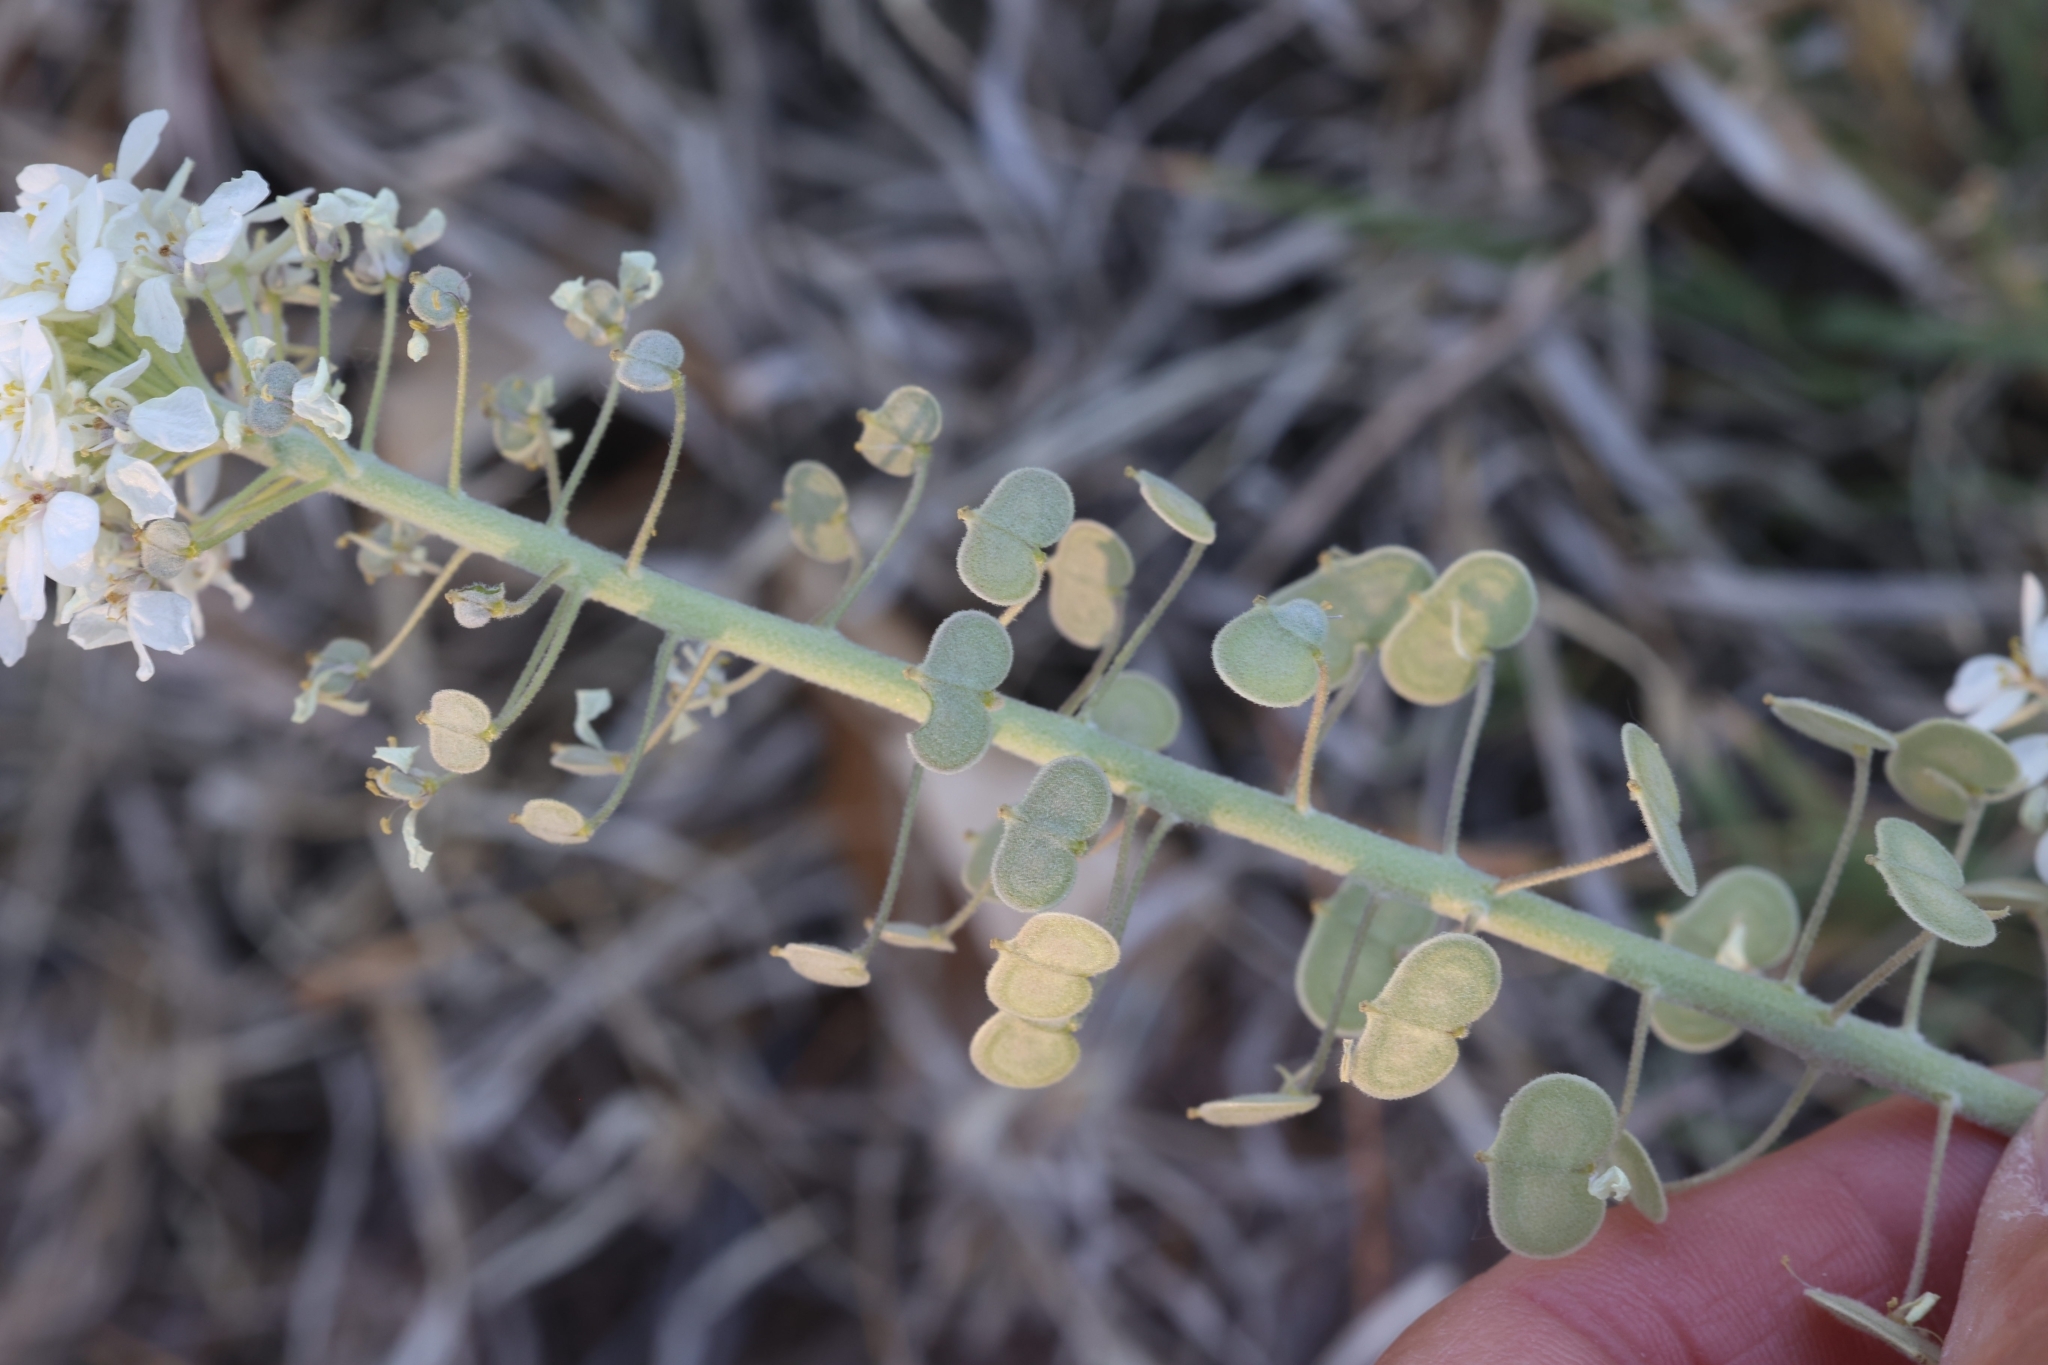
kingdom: Plantae
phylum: Tracheophyta
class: Magnoliopsida
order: Brassicales
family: Brassicaceae
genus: Dimorphocarpa
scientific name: Dimorphocarpa wislizenii
